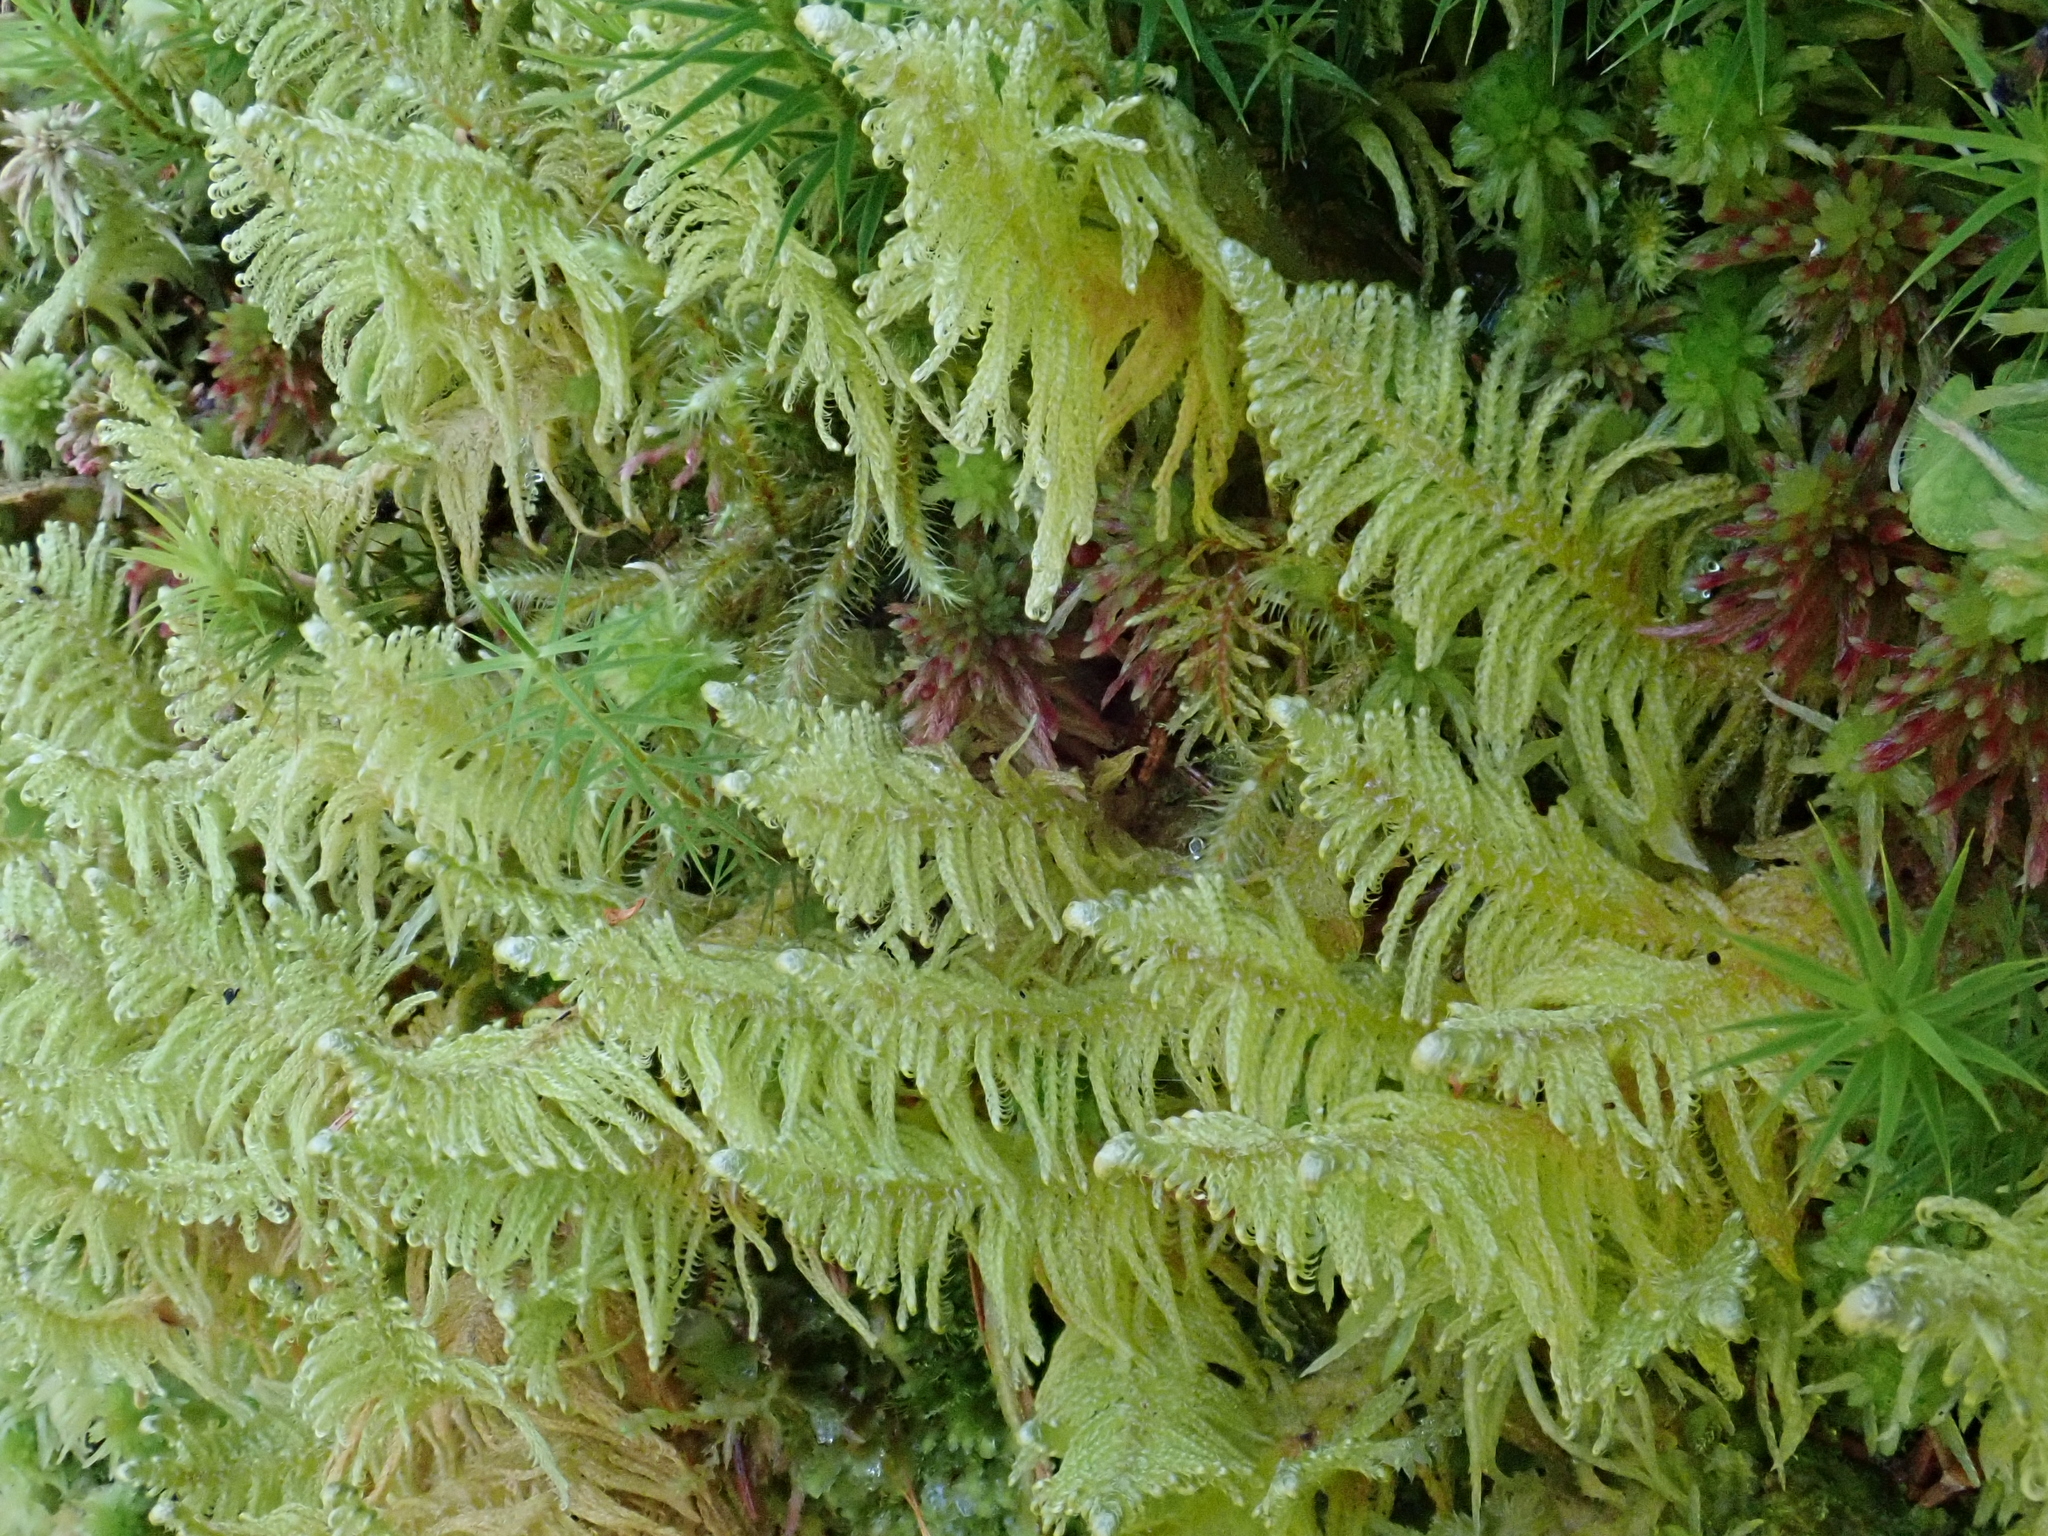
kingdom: Plantae
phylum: Bryophyta
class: Bryopsida
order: Hypnales
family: Pylaisiaceae
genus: Ptilium
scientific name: Ptilium crista-castrensis
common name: Knight's plume moss
